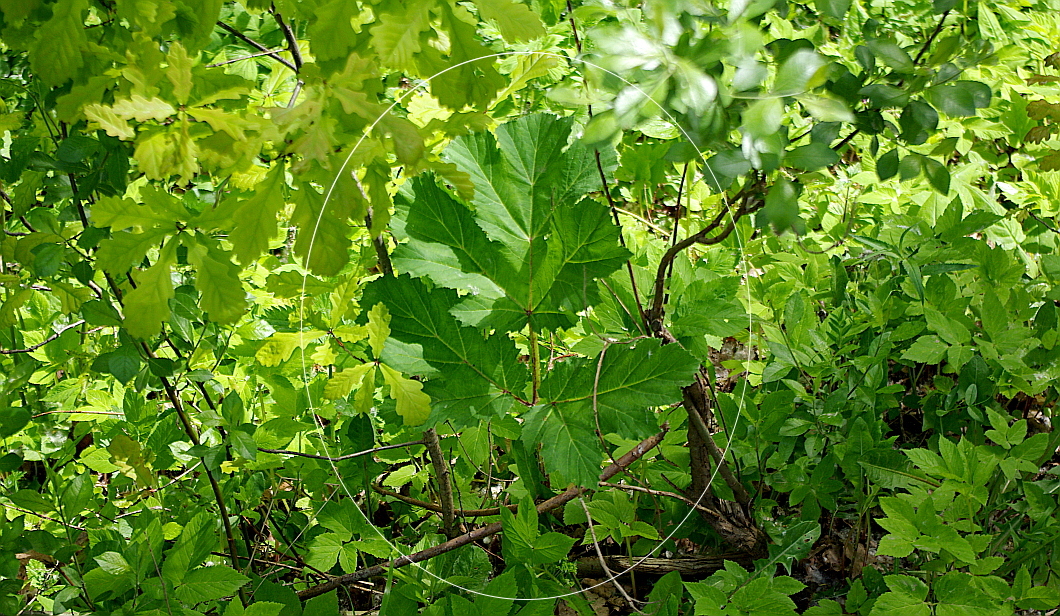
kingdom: Plantae
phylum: Tracheophyta
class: Magnoliopsida
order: Apiales
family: Apiaceae
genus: Heracleum
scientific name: Heracleum sosnowskyi
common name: Sosnowsky's hogweed
